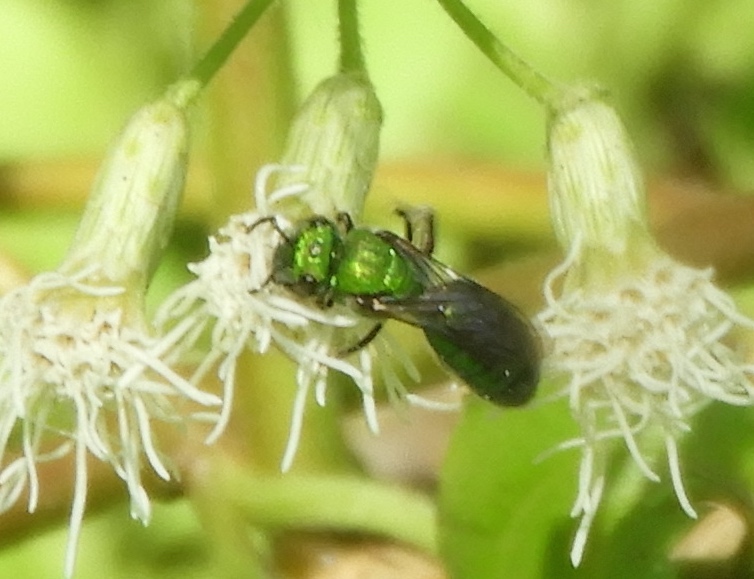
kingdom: Animalia
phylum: Arthropoda
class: Insecta
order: Hymenoptera
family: Halictidae
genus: Augochlora
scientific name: Augochlora
